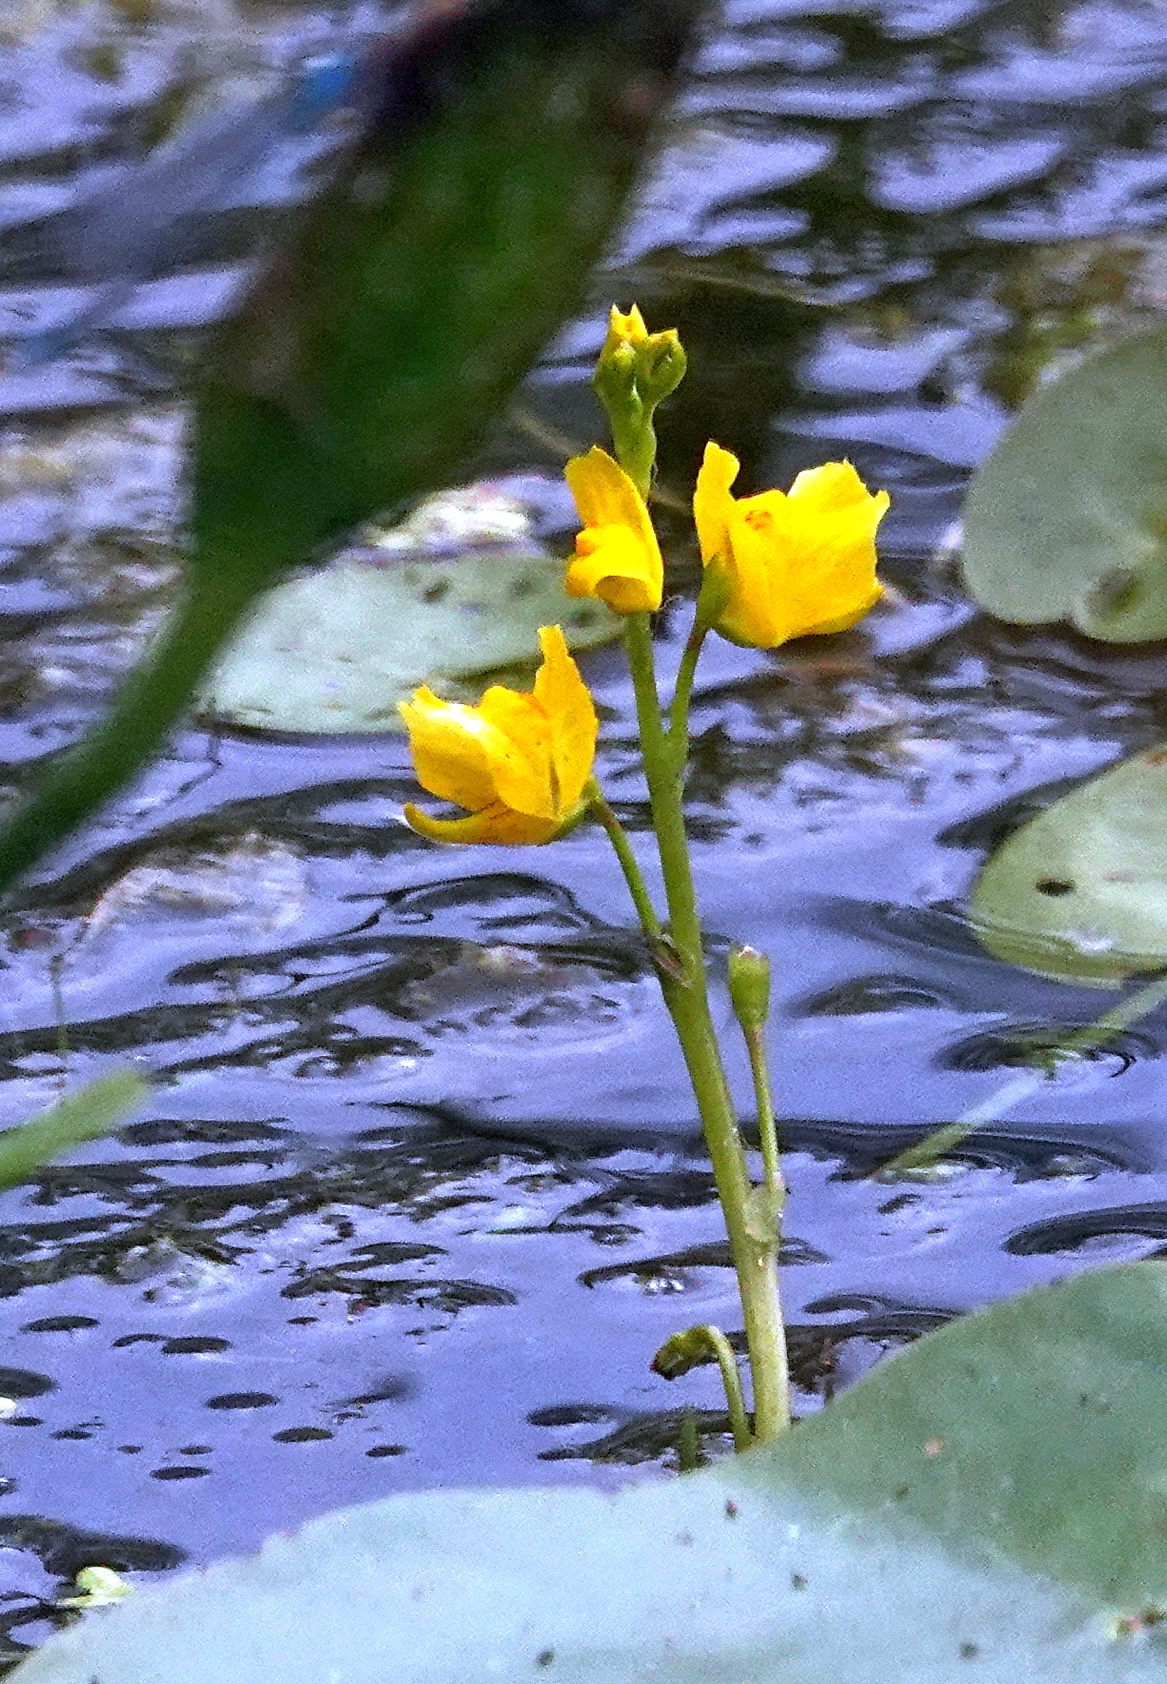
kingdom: Plantae
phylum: Tracheophyta
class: Magnoliopsida
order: Lamiales
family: Lentibulariaceae
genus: Utricularia
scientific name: Utricularia macrorhiza
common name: Common bladderwort
